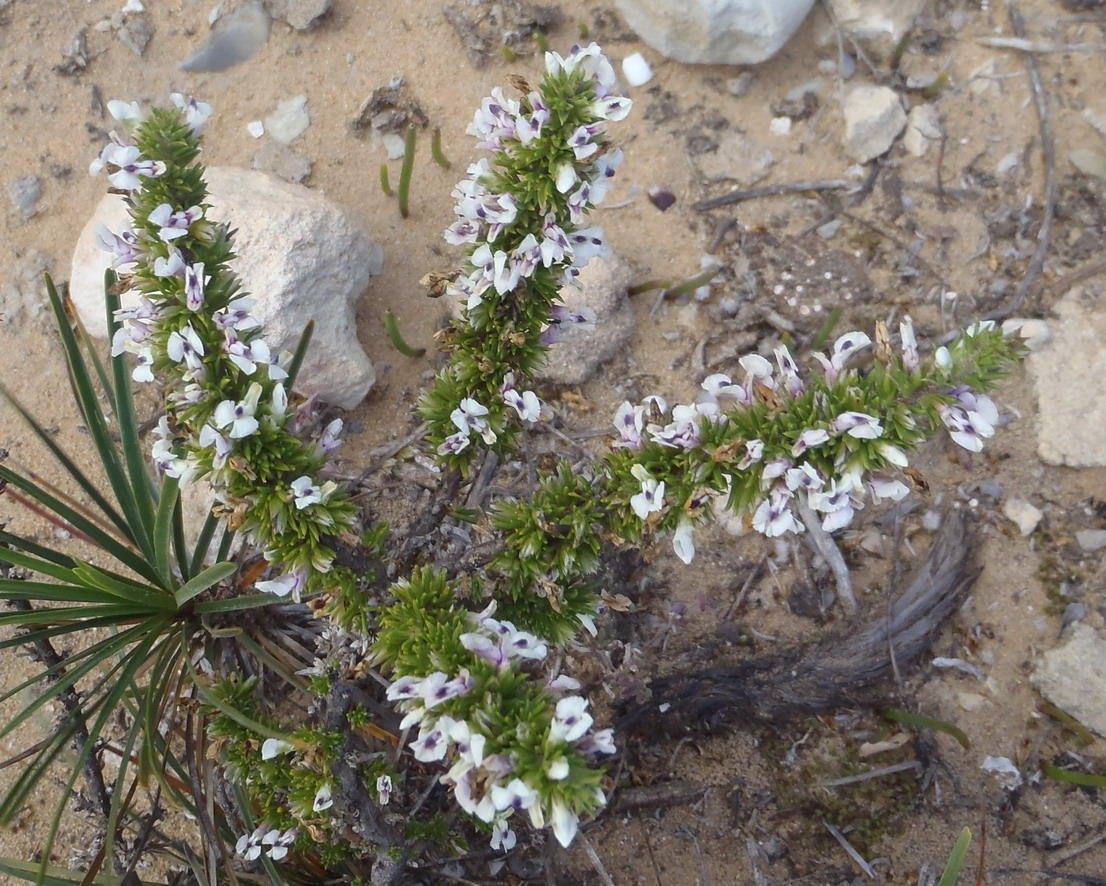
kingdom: Plantae
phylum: Tracheophyta
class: Magnoliopsida
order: Fabales
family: Polygalaceae
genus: Muraltia
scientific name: Muraltia pappeana
